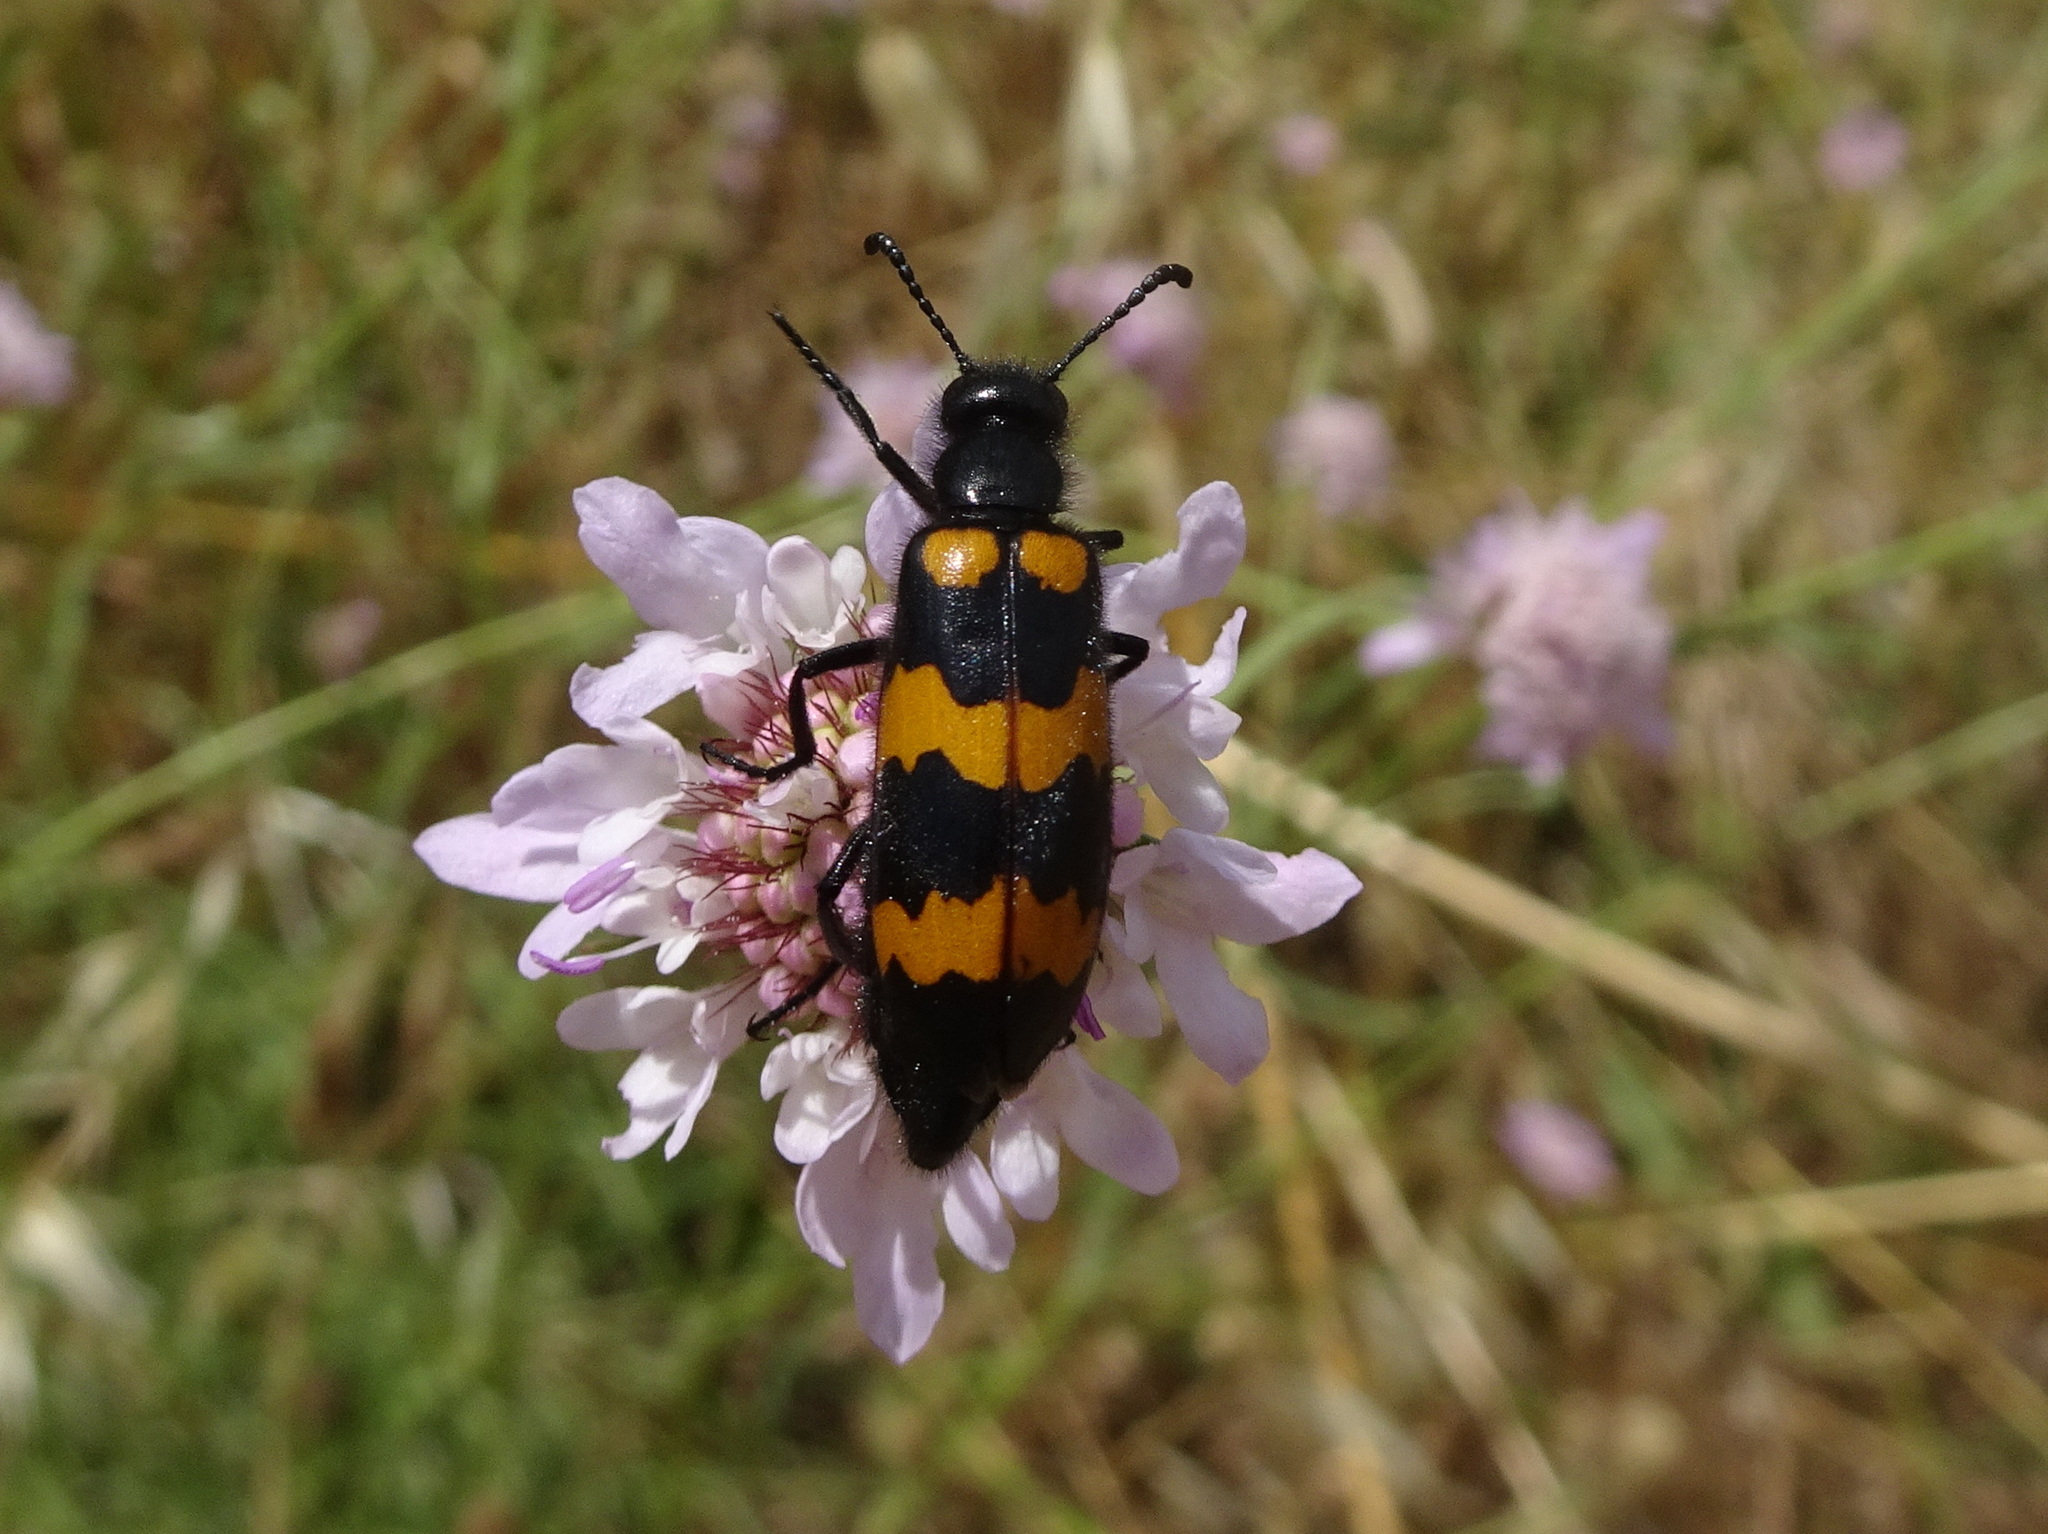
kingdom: Animalia
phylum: Arthropoda
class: Insecta
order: Coleoptera
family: Meloidae
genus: Mylabris
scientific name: Mylabris variabilis
